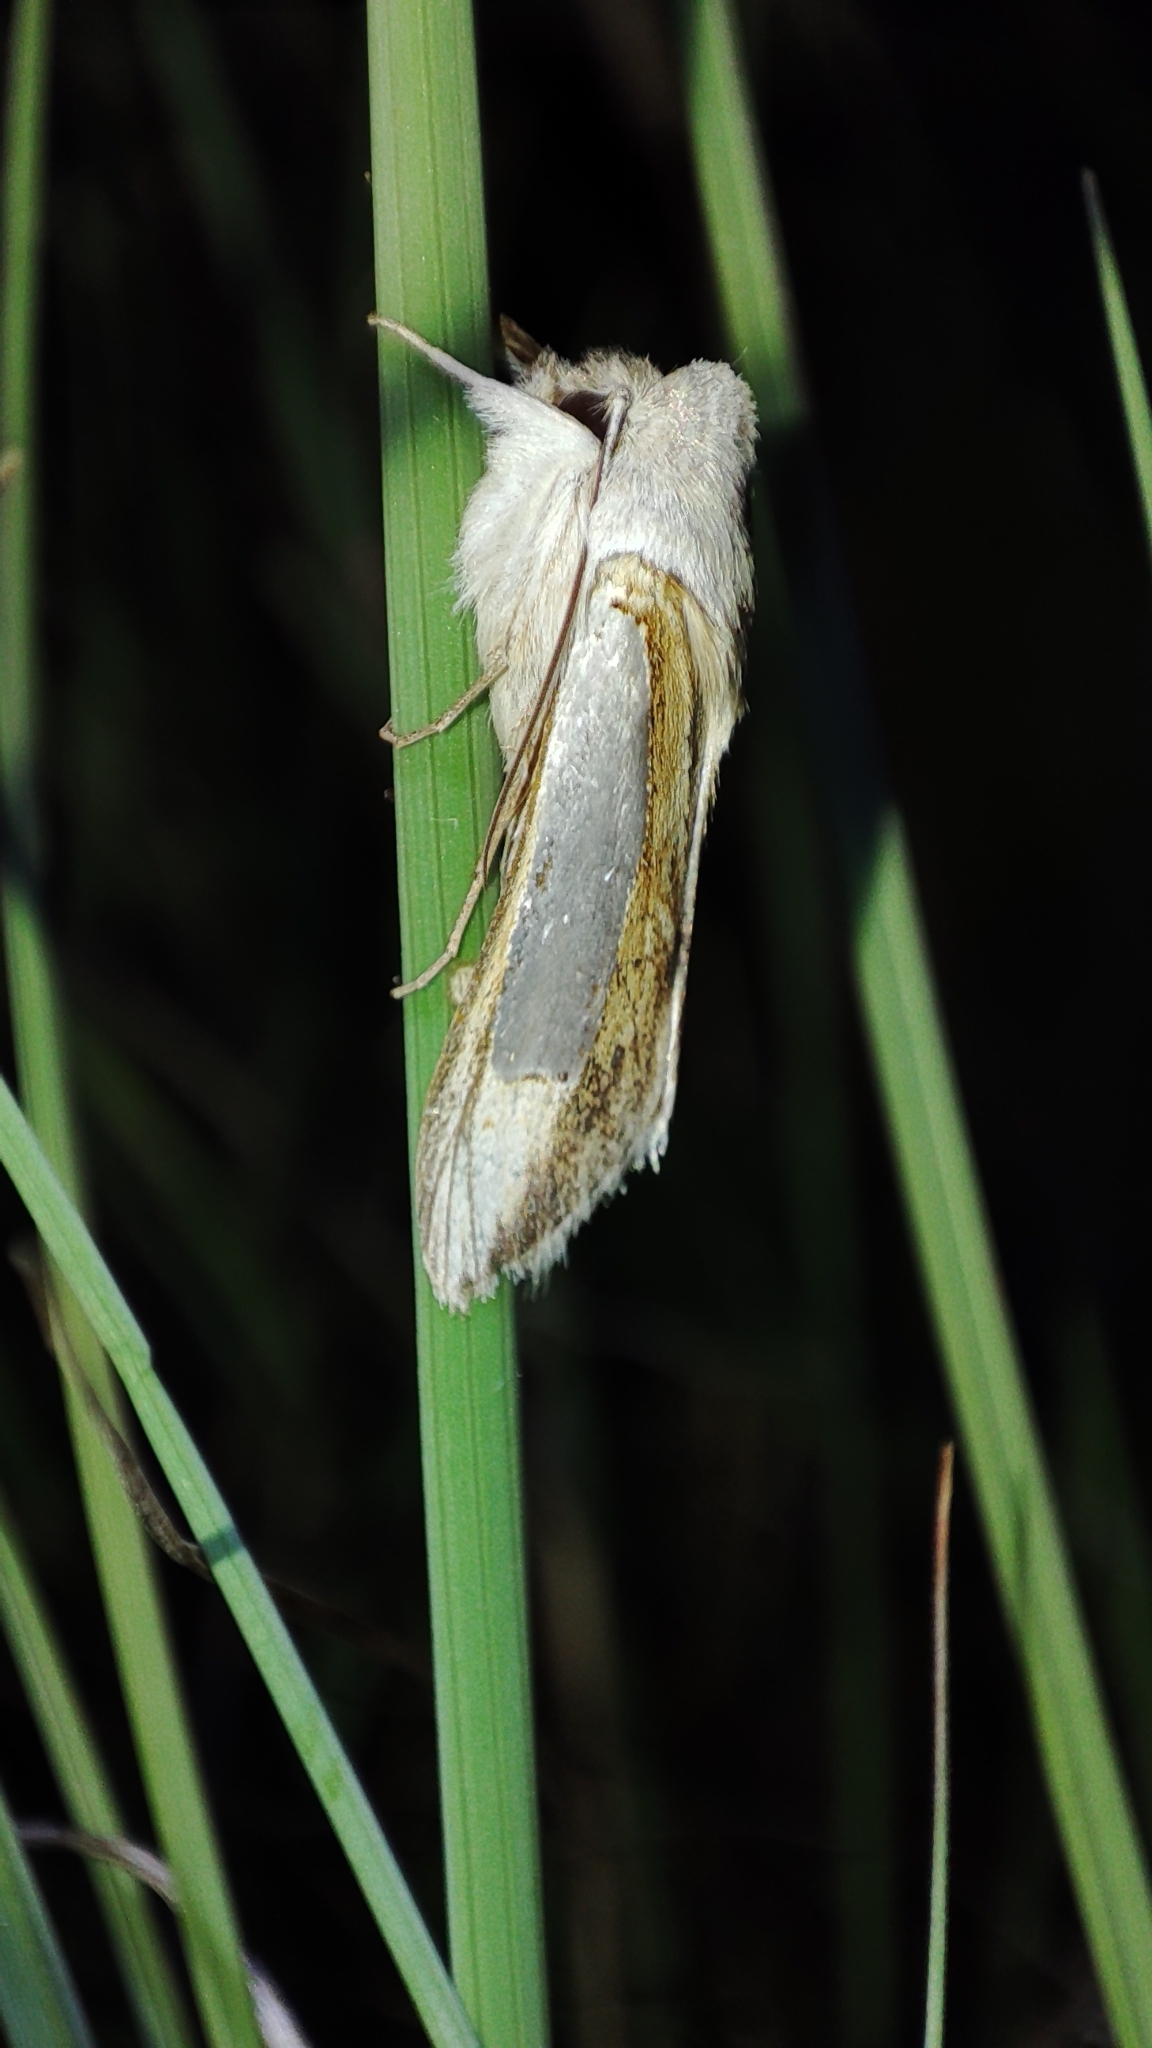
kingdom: Animalia
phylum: Arthropoda
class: Insecta
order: Lepidoptera
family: Noctuidae
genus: Cucullia
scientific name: Cucullia argentina
